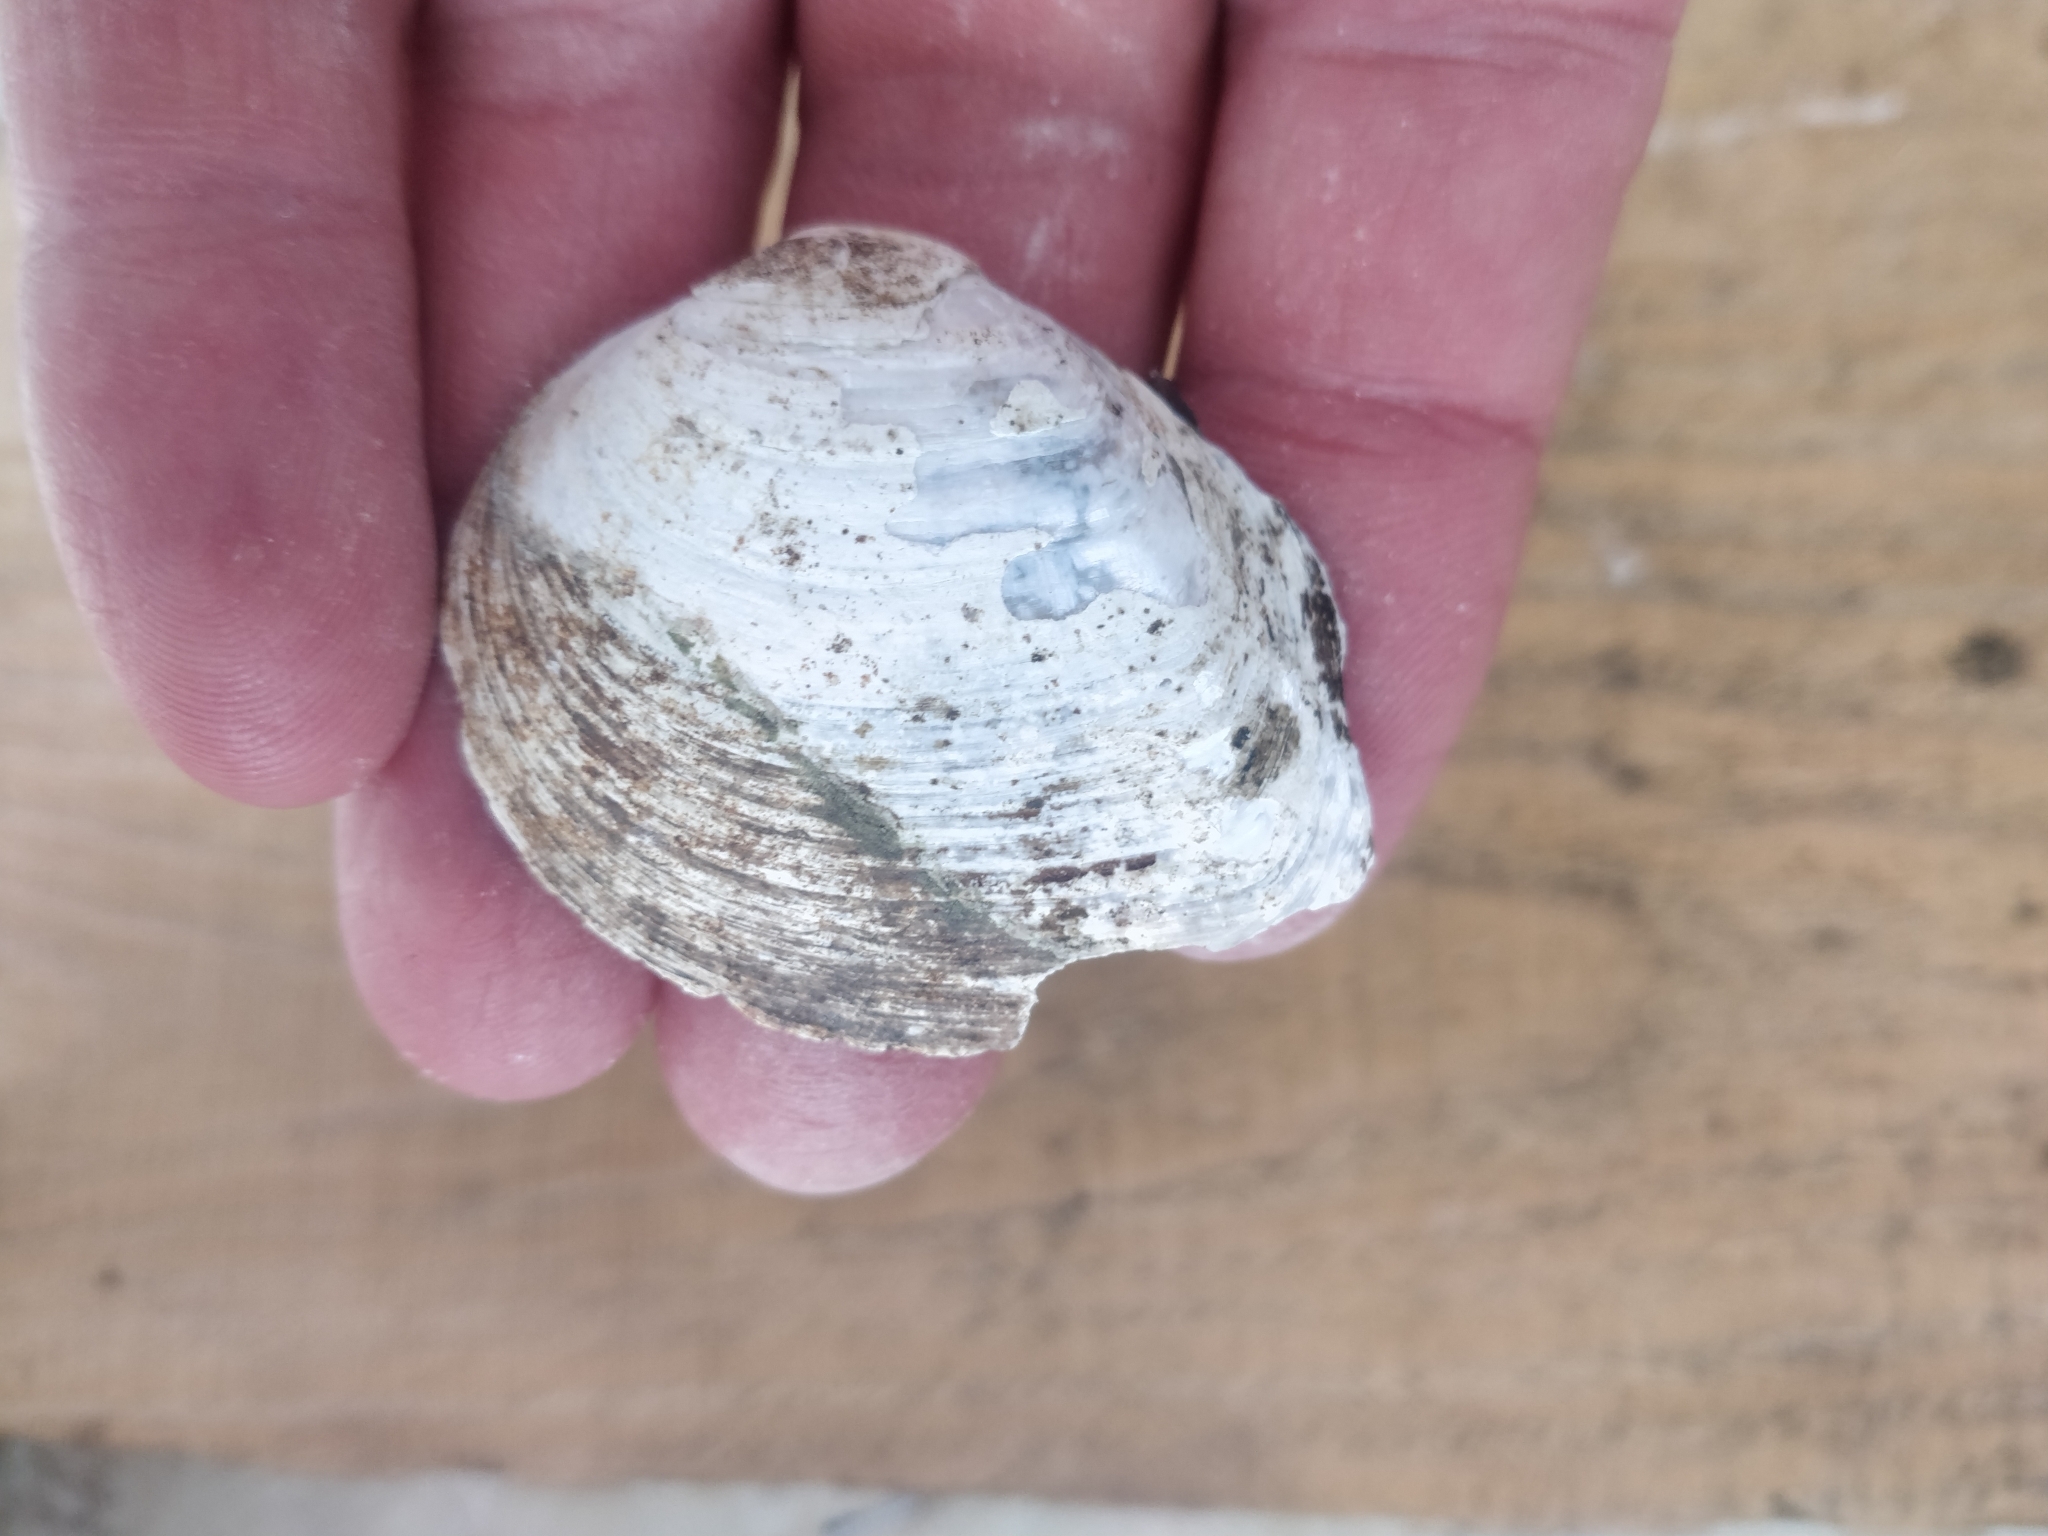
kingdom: Animalia
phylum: Mollusca
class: Bivalvia
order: Unionida
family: Unionidae
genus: Fusconaia
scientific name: Fusconaia flava
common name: Wabash pigtoe
